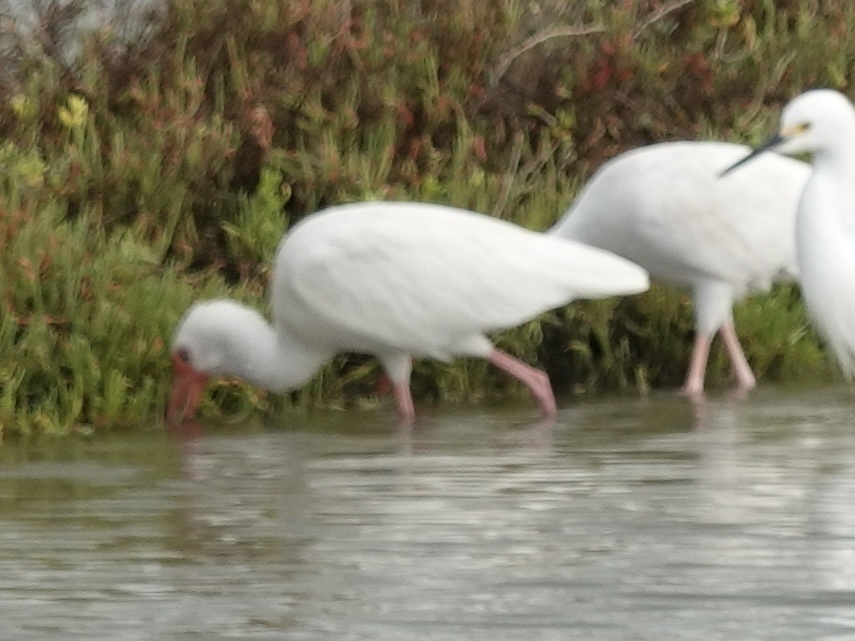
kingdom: Animalia
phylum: Chordata
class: Aves
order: Pelecaniformes
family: Threskiornithidae
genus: Eudocimus
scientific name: Eudocimus albus
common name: White ibis
